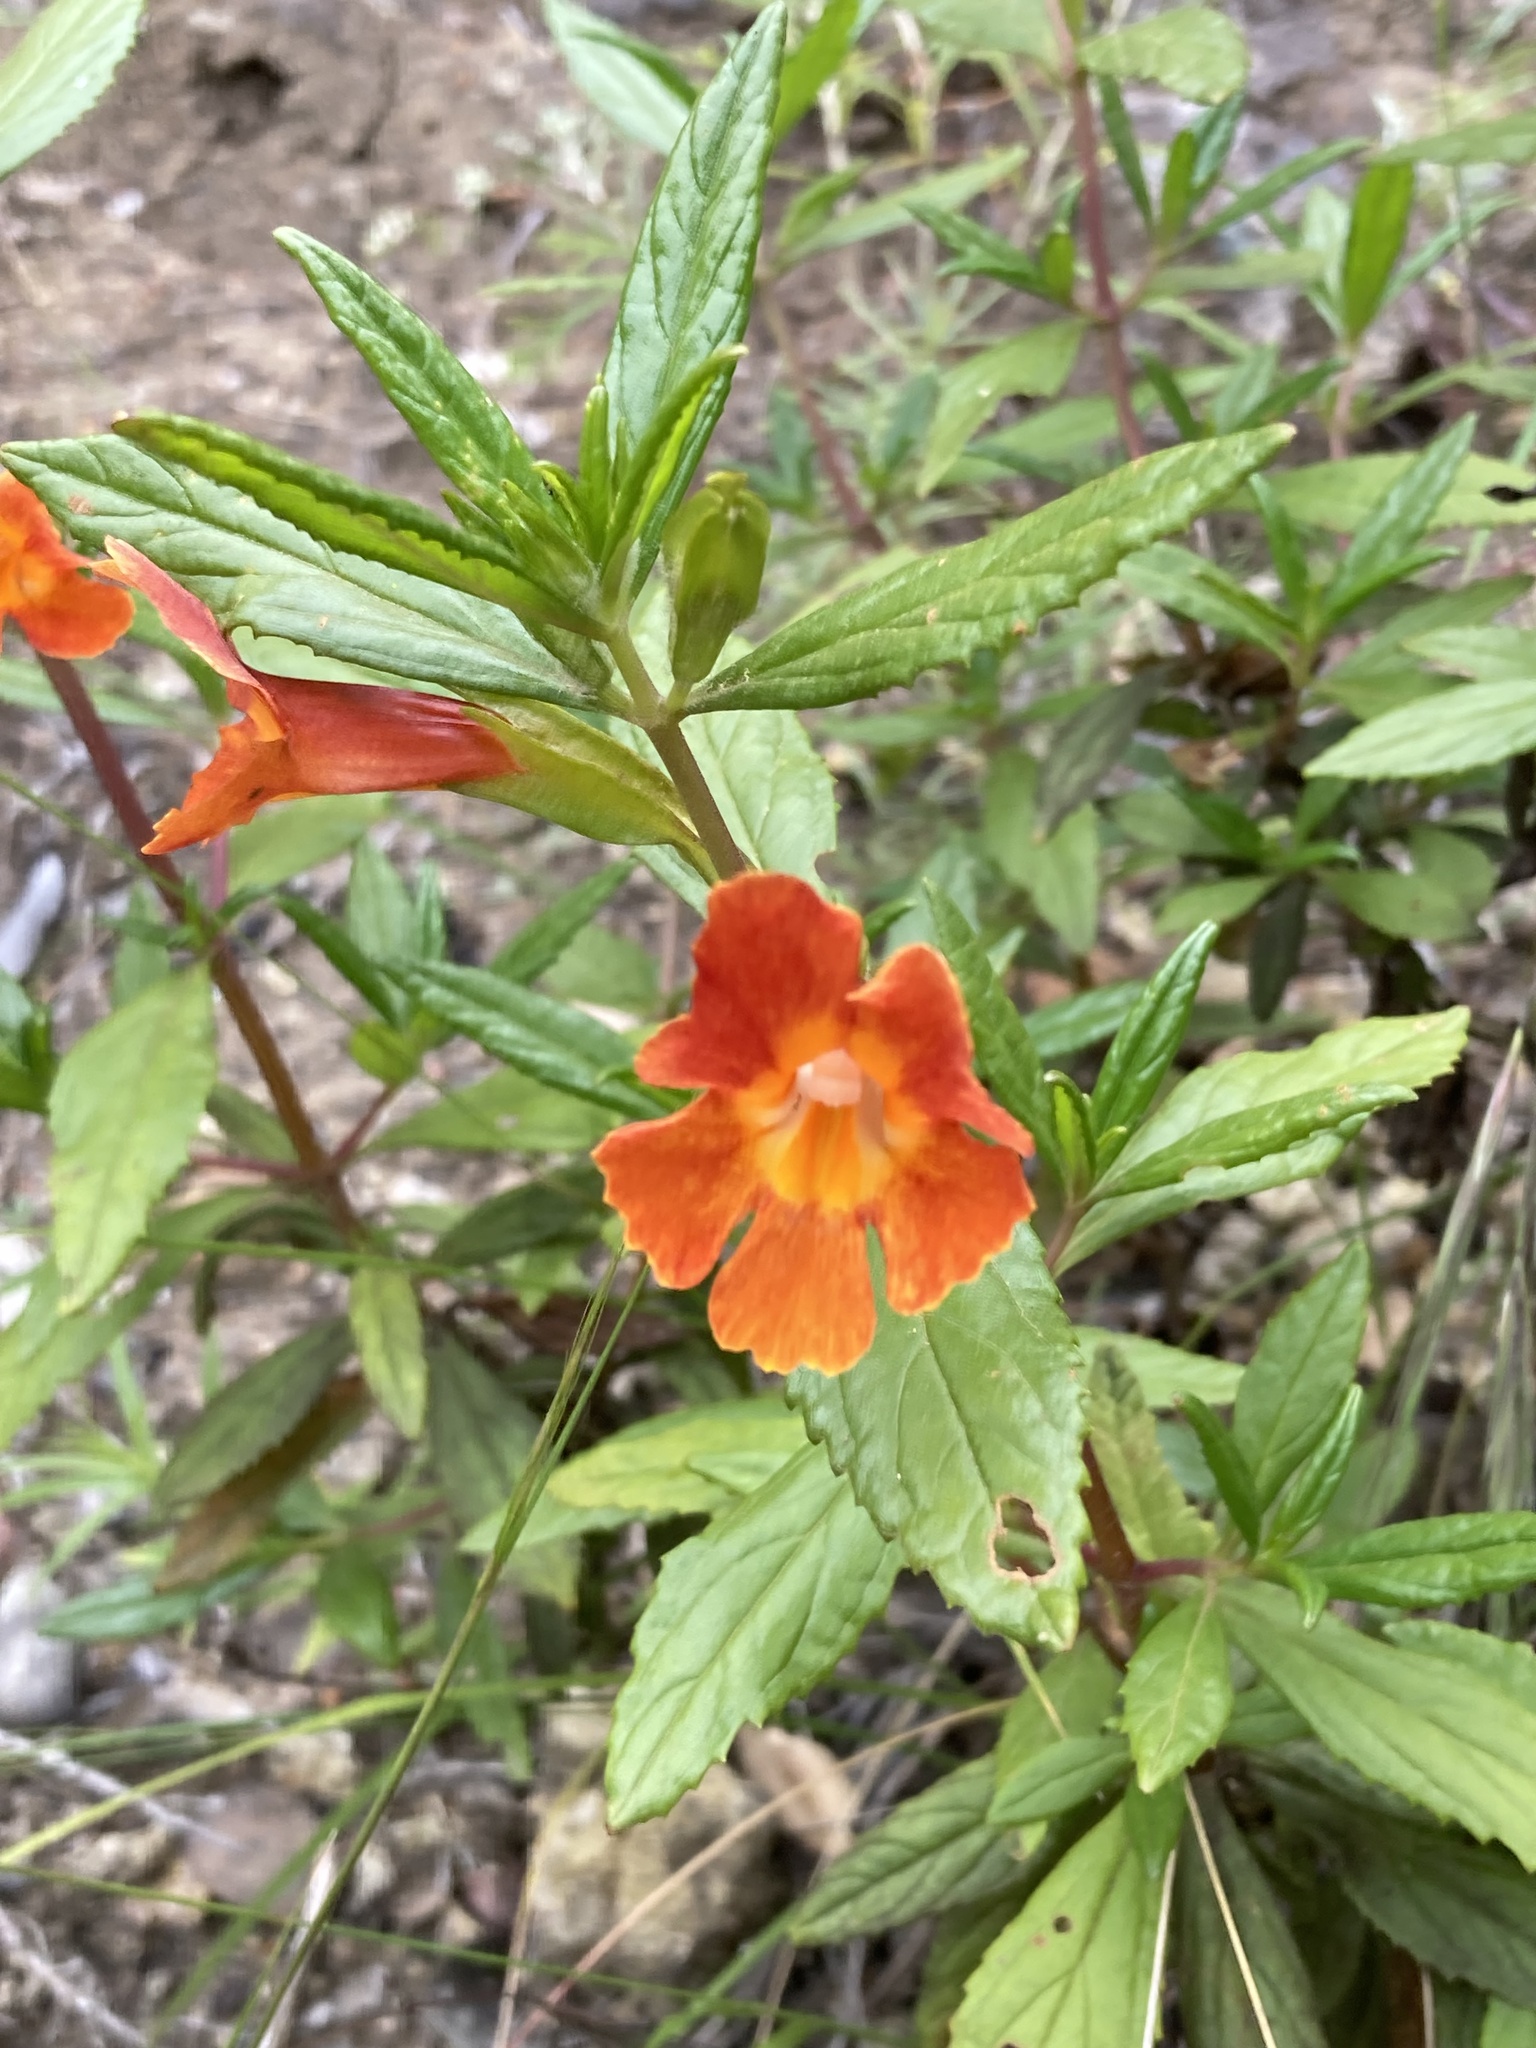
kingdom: Plantae
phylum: Tracheophyta
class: Magnoliopsida
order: Lamiales
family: Phrymaceae
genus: Diplacus
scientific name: Diplacus parviflorus
